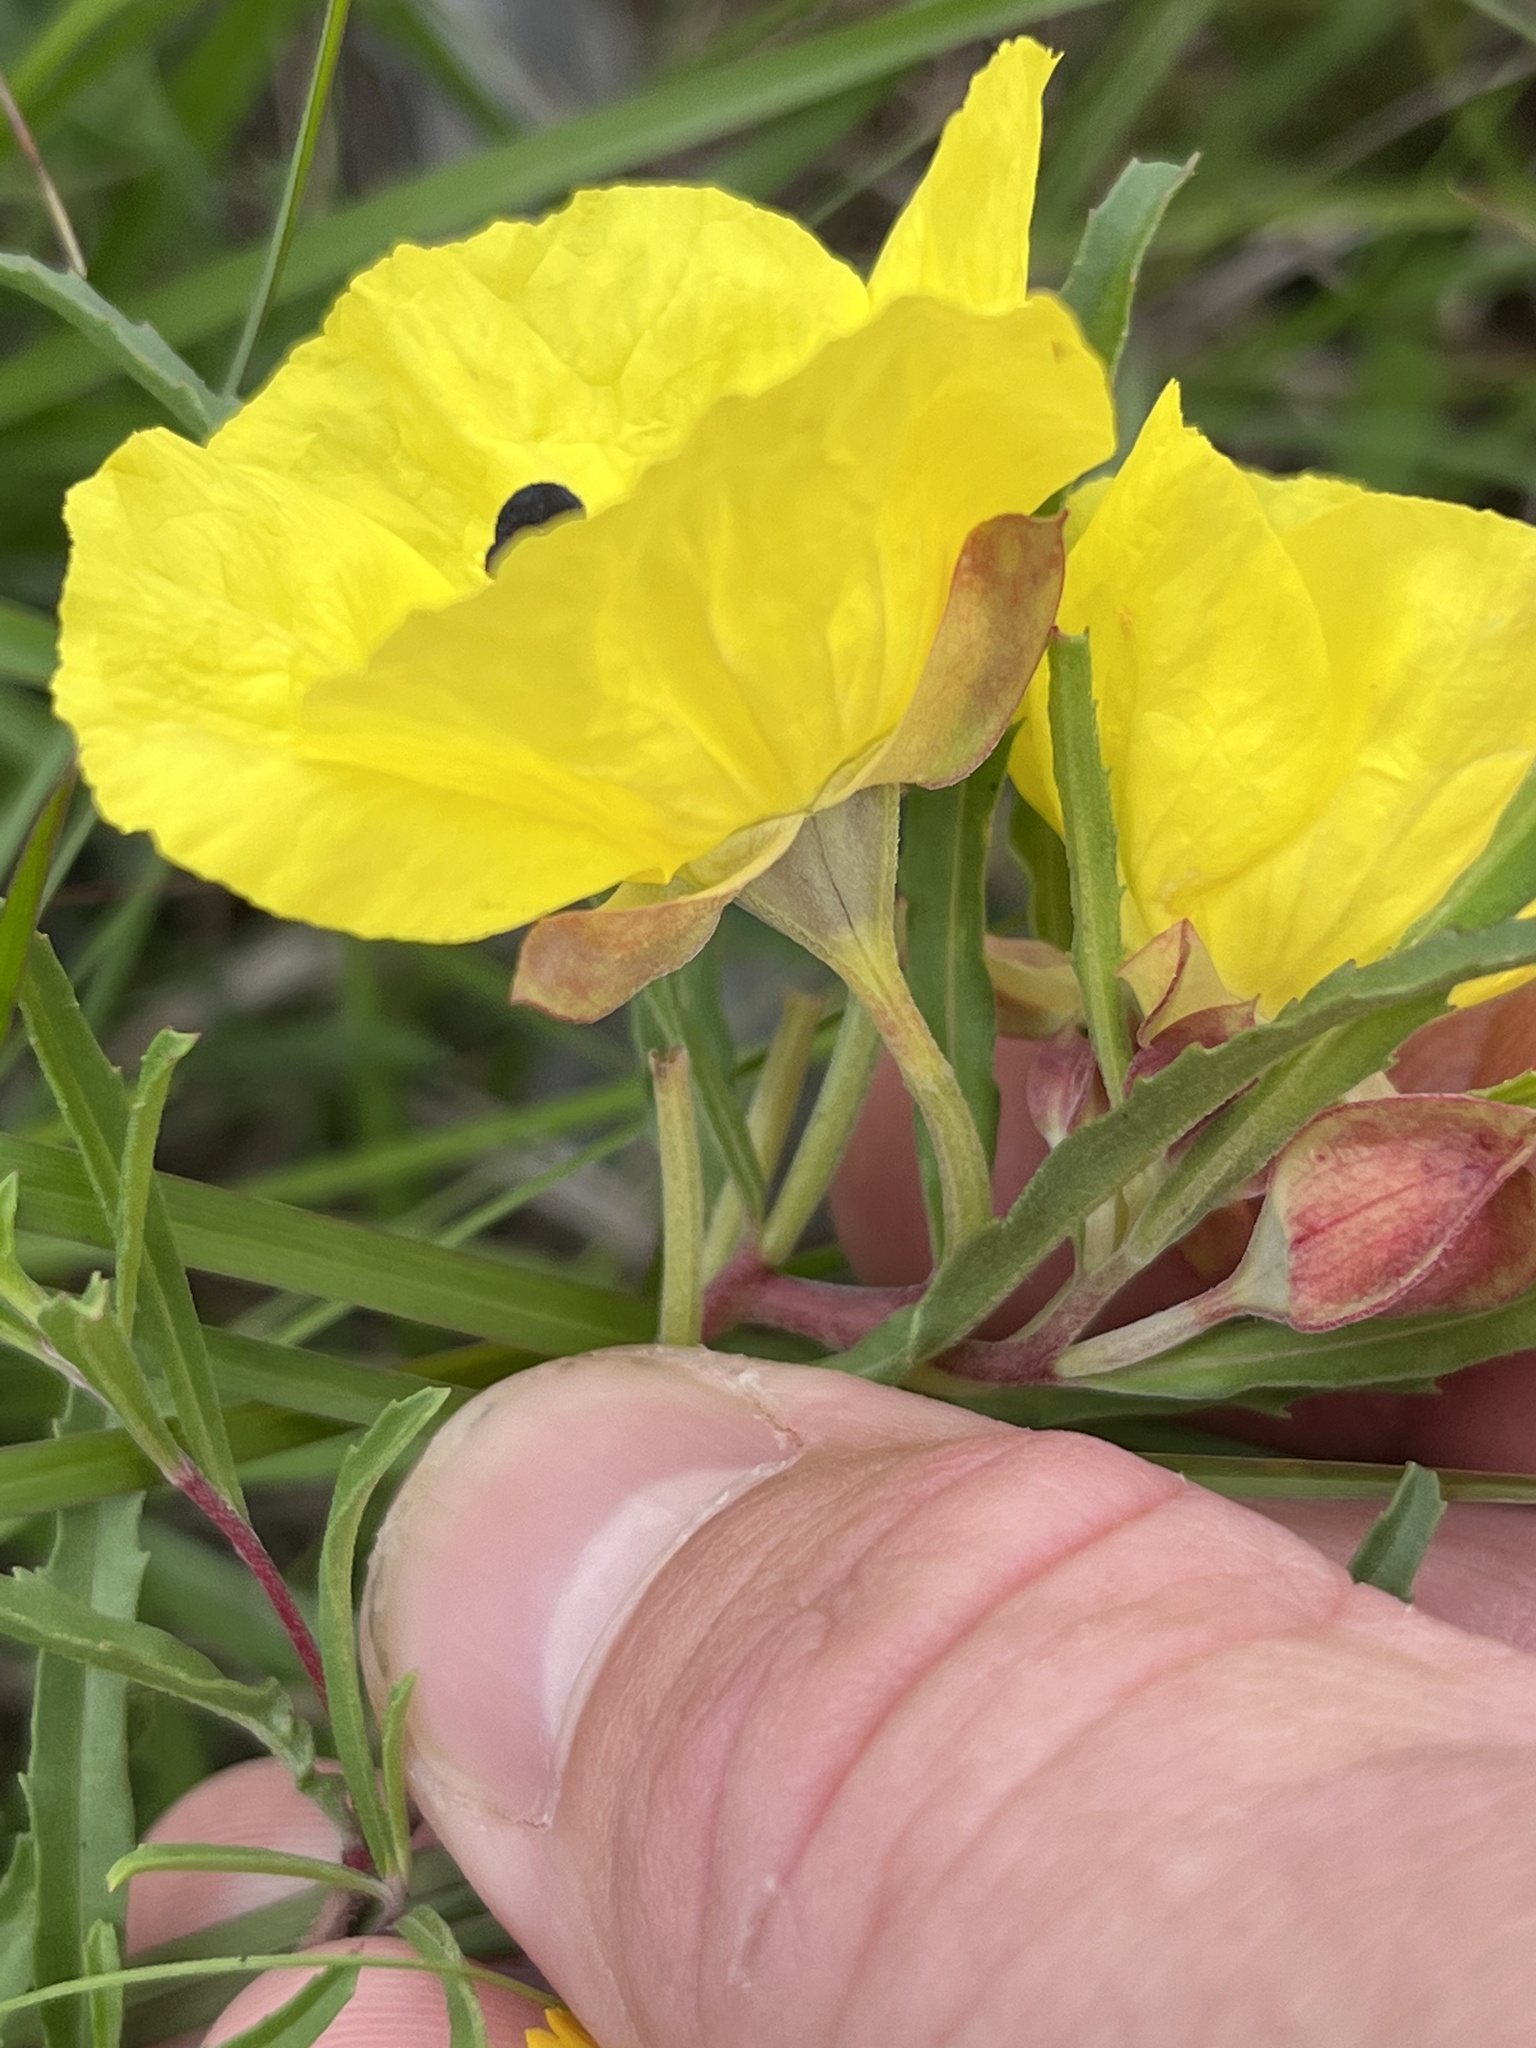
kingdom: Plantae
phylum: Tracheophyta
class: Magnoliopsida
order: Myrtales
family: Onagraceae
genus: Oenothera
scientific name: Oenothera
